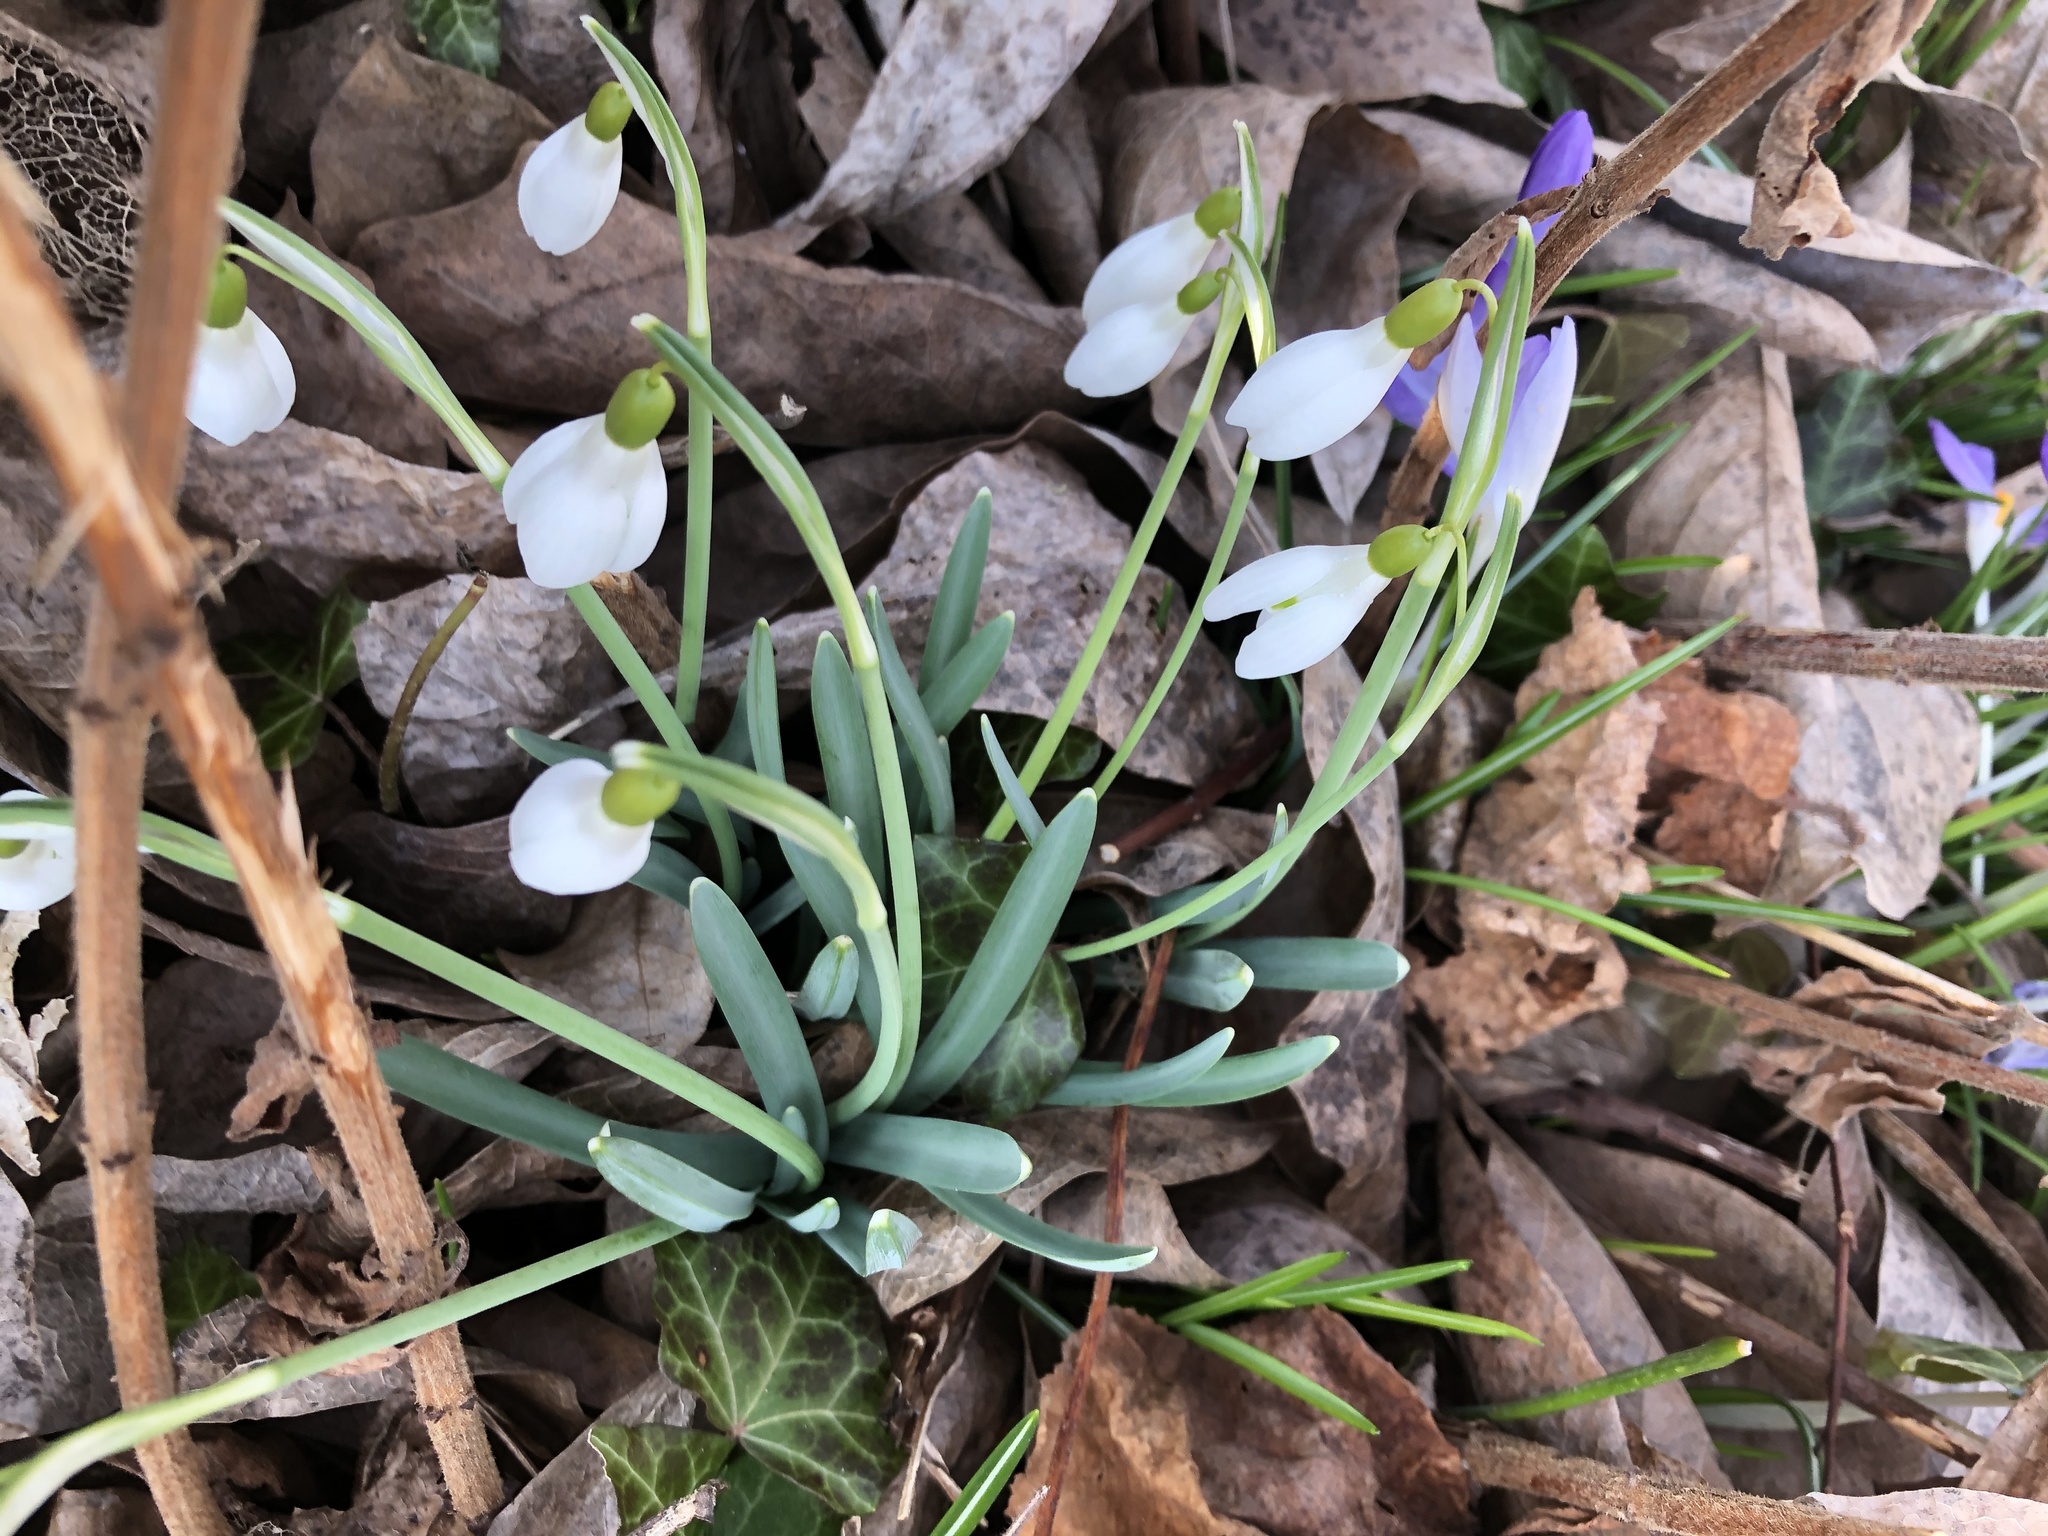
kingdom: Plantae
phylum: Tracheophyta
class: Liliopsida
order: Asparagales
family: Amaryllidaceae
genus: Galanthus
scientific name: Galanthus nivalis
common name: Snowdrop
